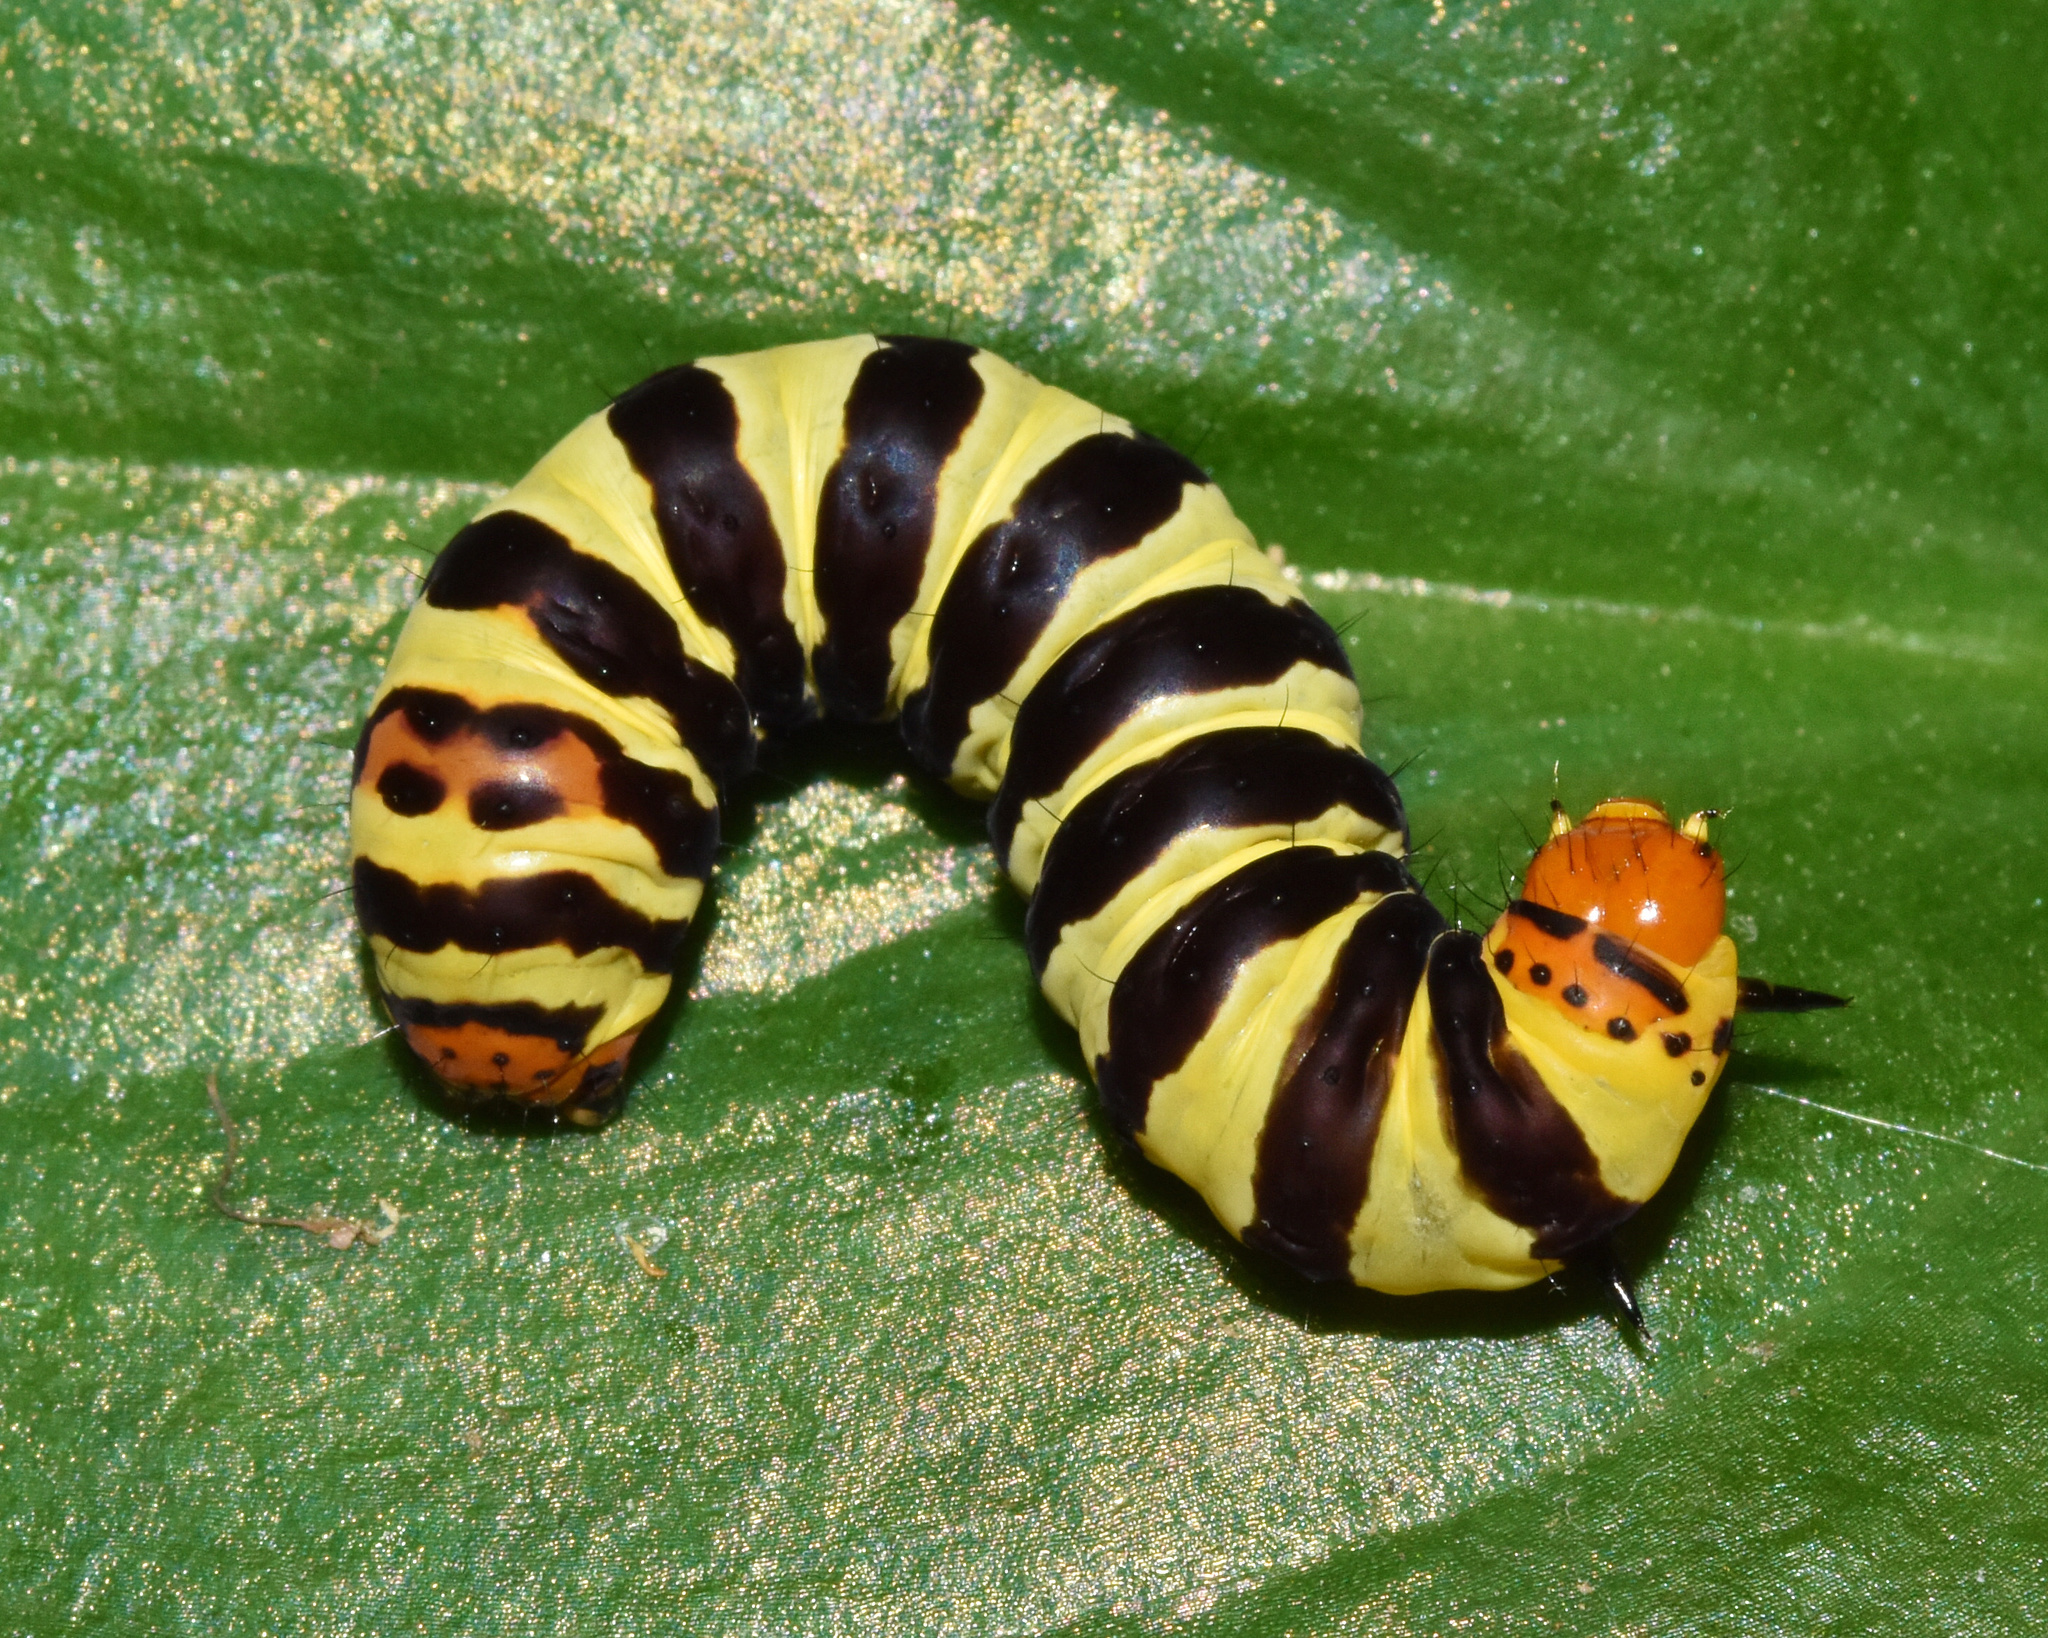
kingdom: Animalia
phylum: Arthropoda
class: Insecta
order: Lepidoptera
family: Noctuidae
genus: Diaphone
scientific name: Diaphone eumela
